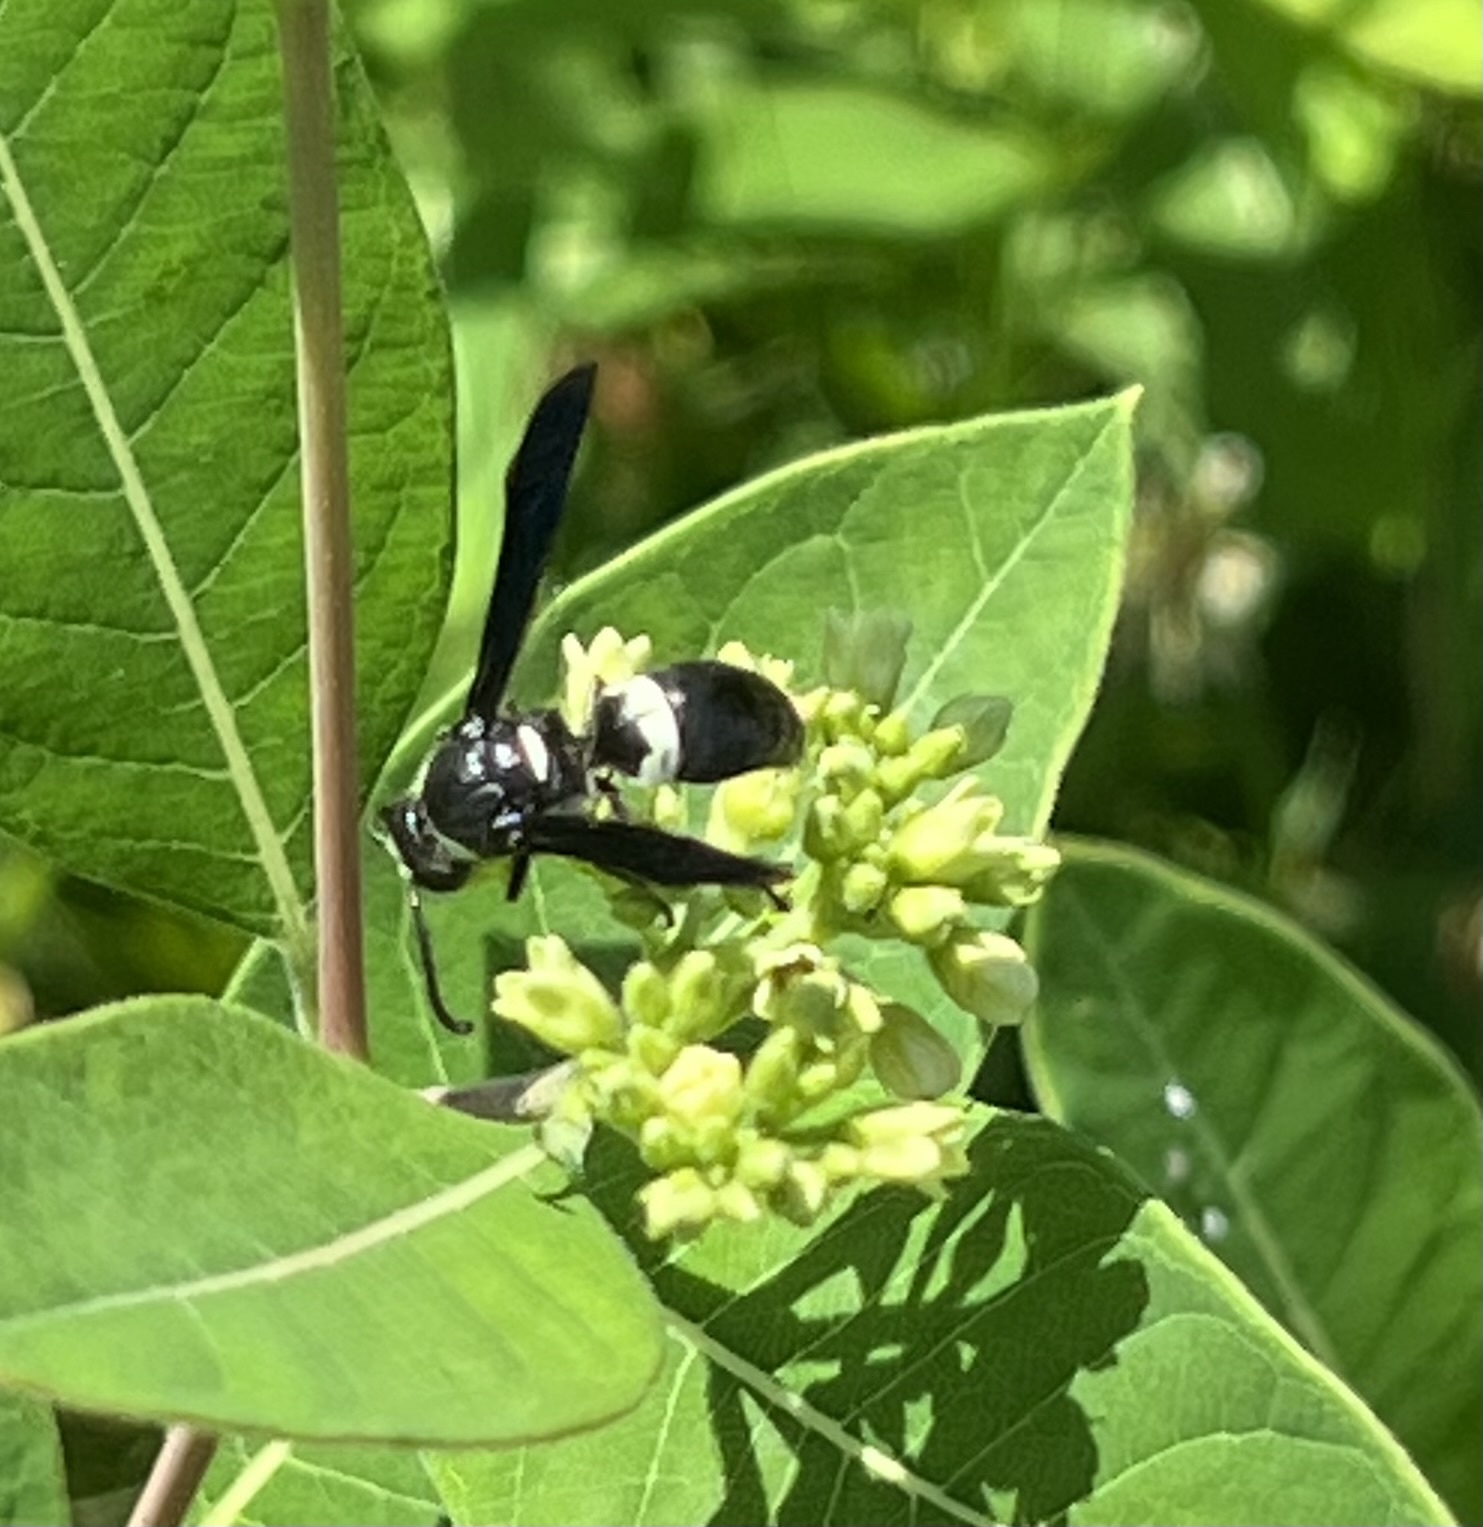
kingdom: Animalia
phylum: Arthropoda
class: Insecta
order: Hymenoptera
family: Eumenidae
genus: Monobia
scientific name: Monobia quadridens
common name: Four-toothed mason wasp
